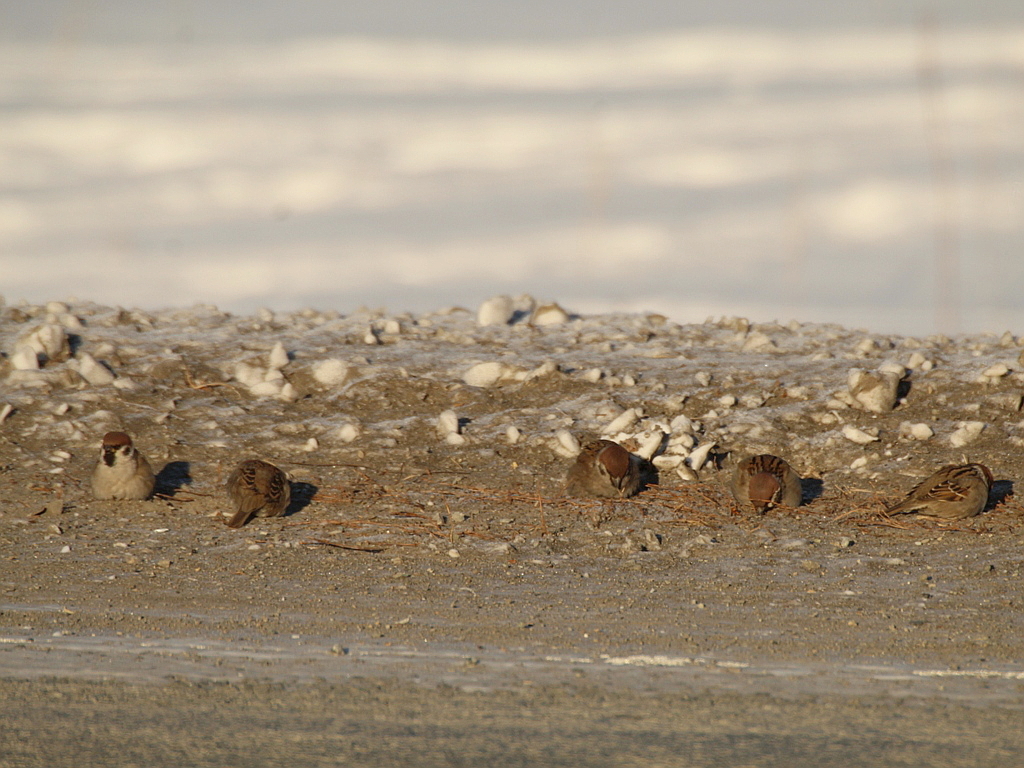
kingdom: Animalia
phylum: Chordata
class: Aves
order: Passeriformes
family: Passeridae
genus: Passer
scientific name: Passer montanus
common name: Eurasian tree sparrow
